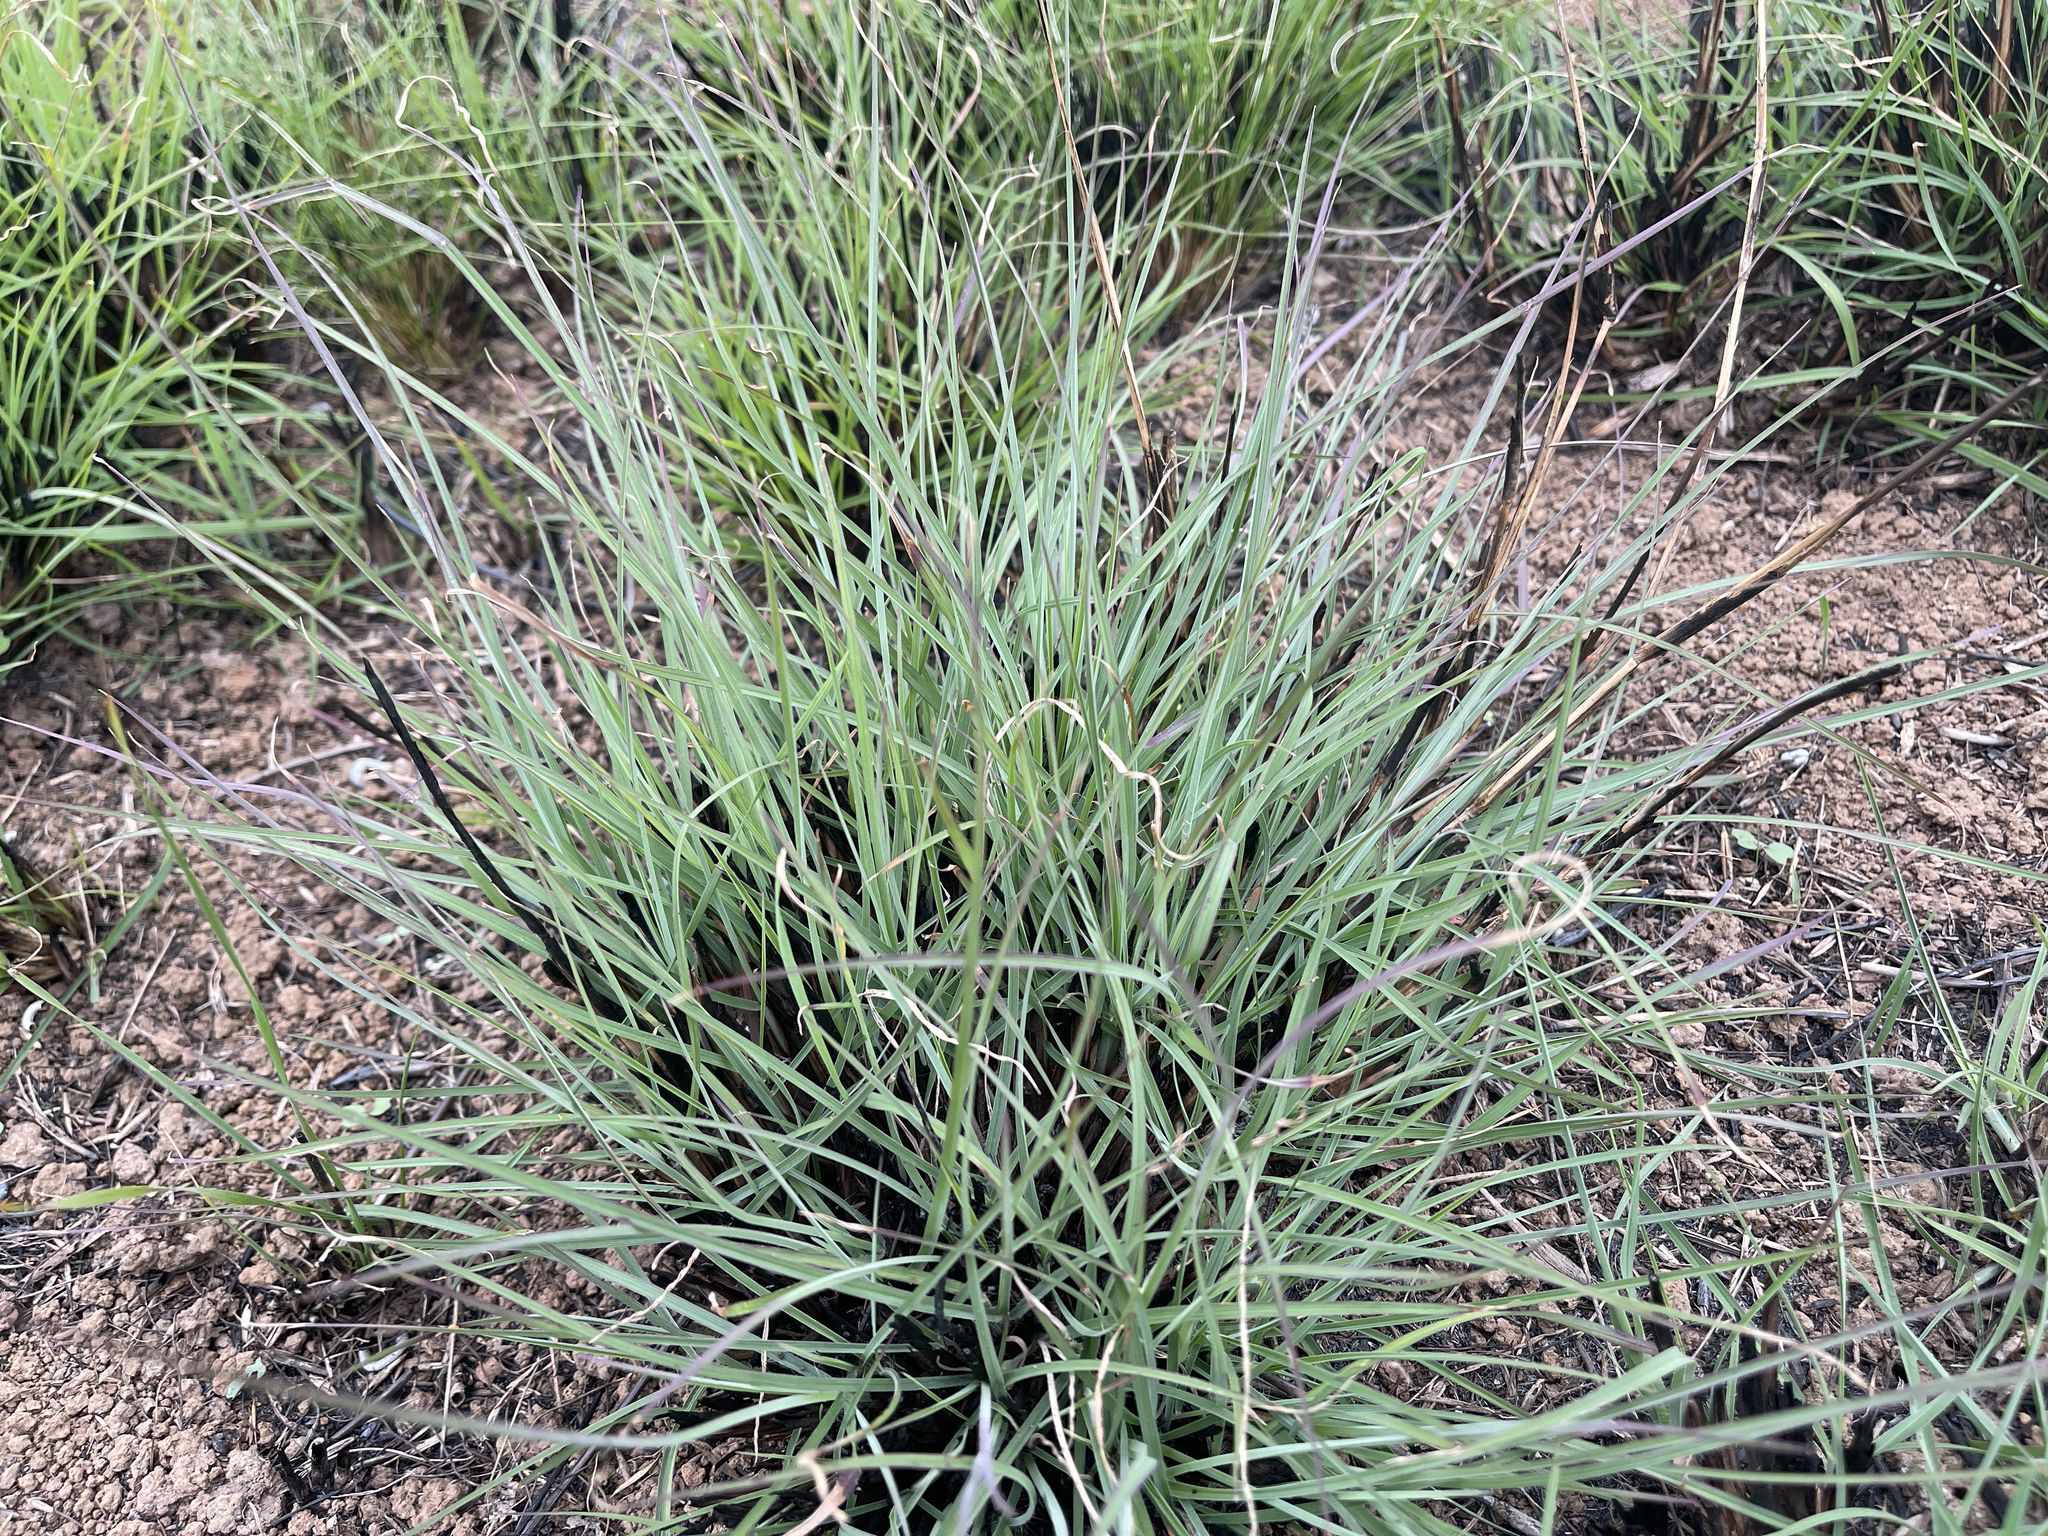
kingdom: Plantae
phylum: Tracheophyta
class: Liliopsida
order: Poales
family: Poaceae
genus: Themeda
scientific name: Themeda triandra
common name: Kangaroo grass
